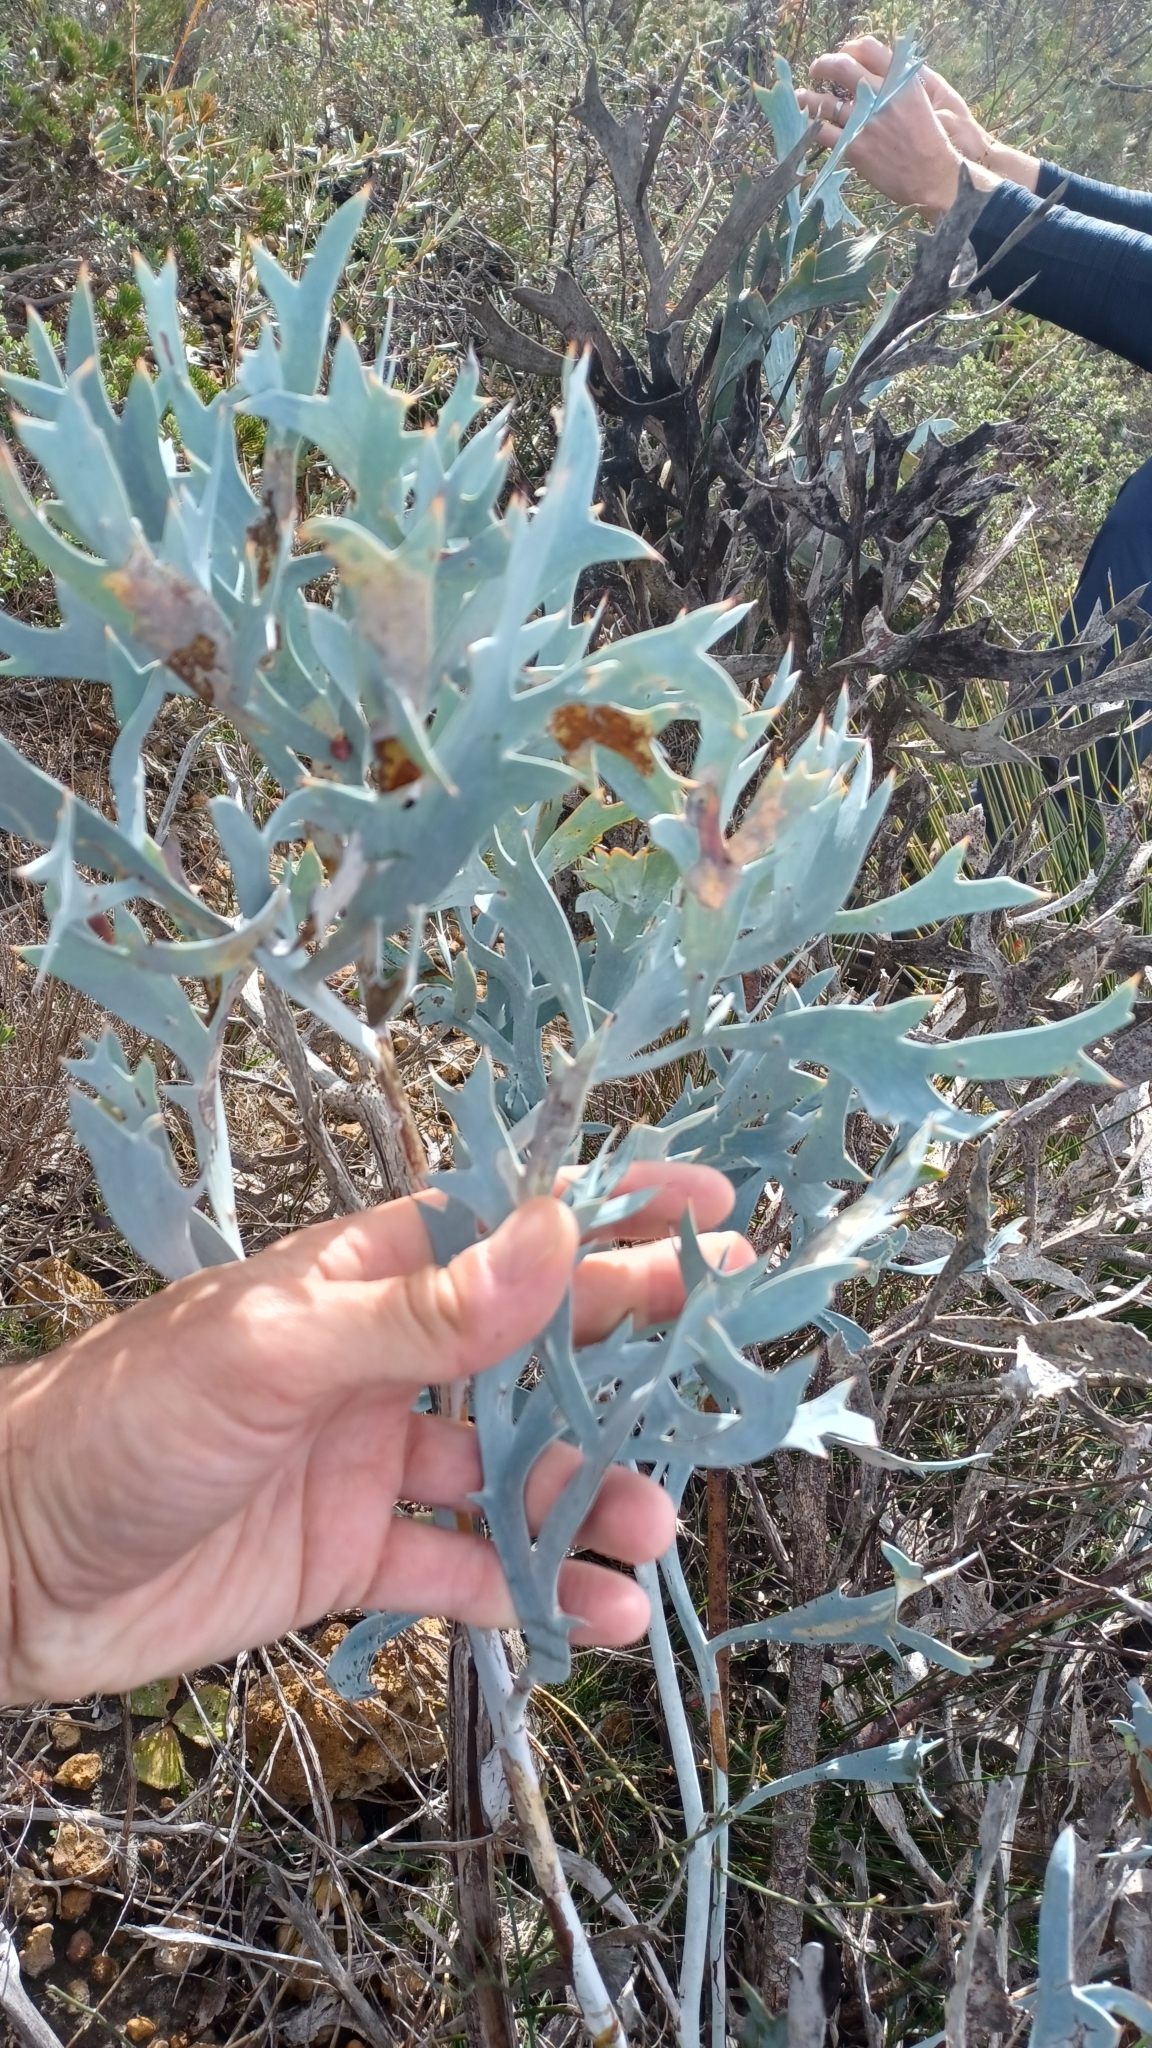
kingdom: Plantae
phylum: Tracheophyta
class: Magnoliopsida
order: Fabales
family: Fabaceae
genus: Daviesia
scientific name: Daviesia epiphyllum
